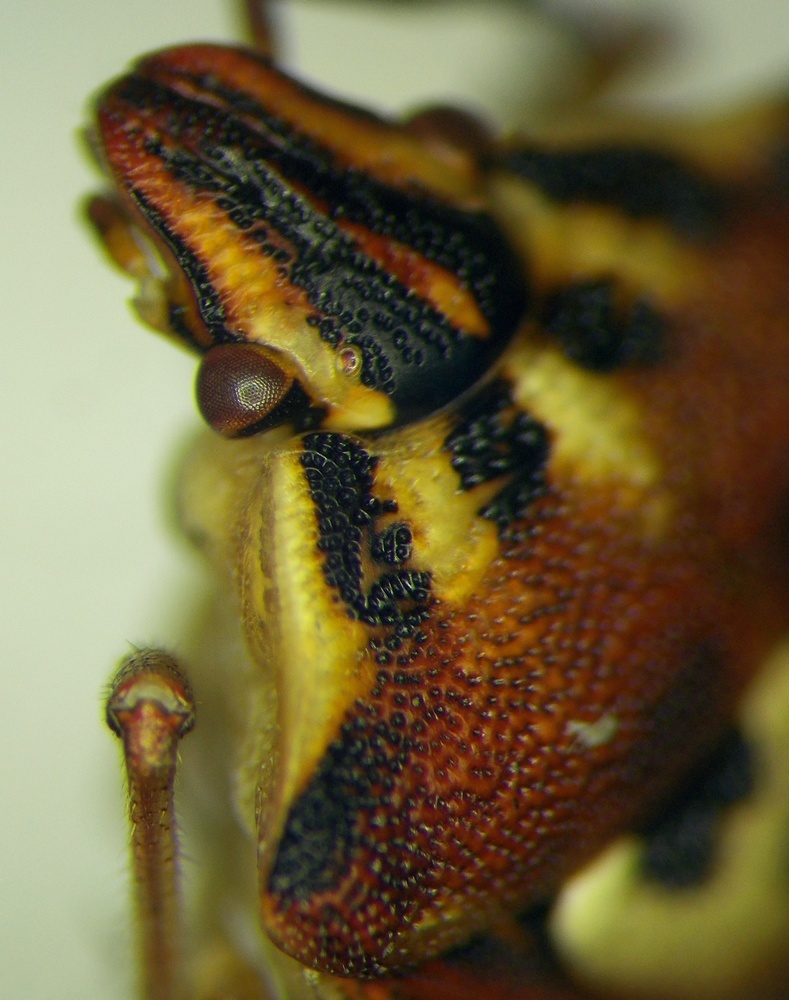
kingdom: Animalia
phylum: Arthropoda
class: Insecta
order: Hemiptera
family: Miridae
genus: Orthops
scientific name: Orthops kalmii
